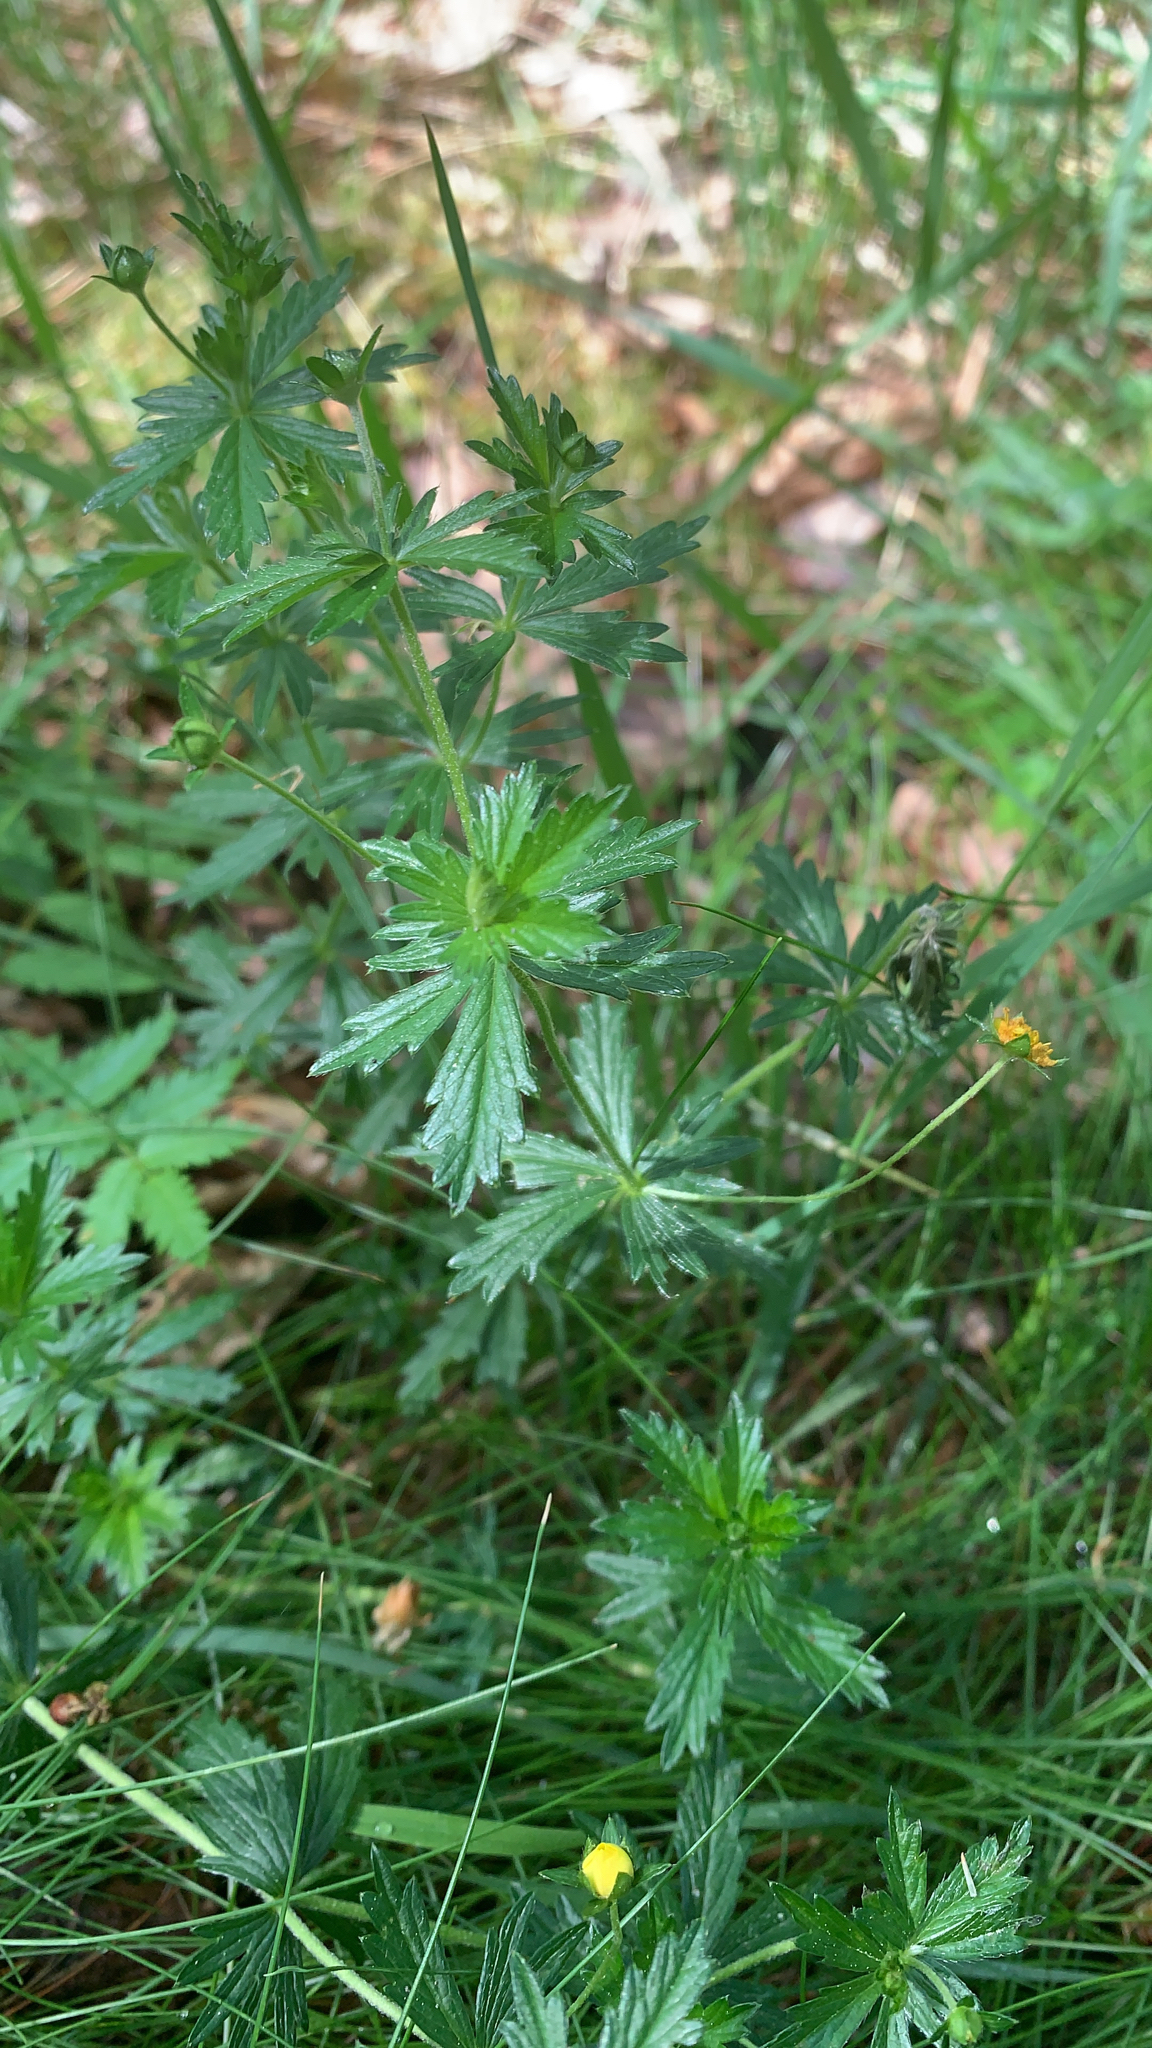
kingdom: Plantae
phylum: Tracheophyta
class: Magnoliopsida
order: Rosales
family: Rosaceae
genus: Potentilla
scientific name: Potentilla erecta
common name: Tormentil
